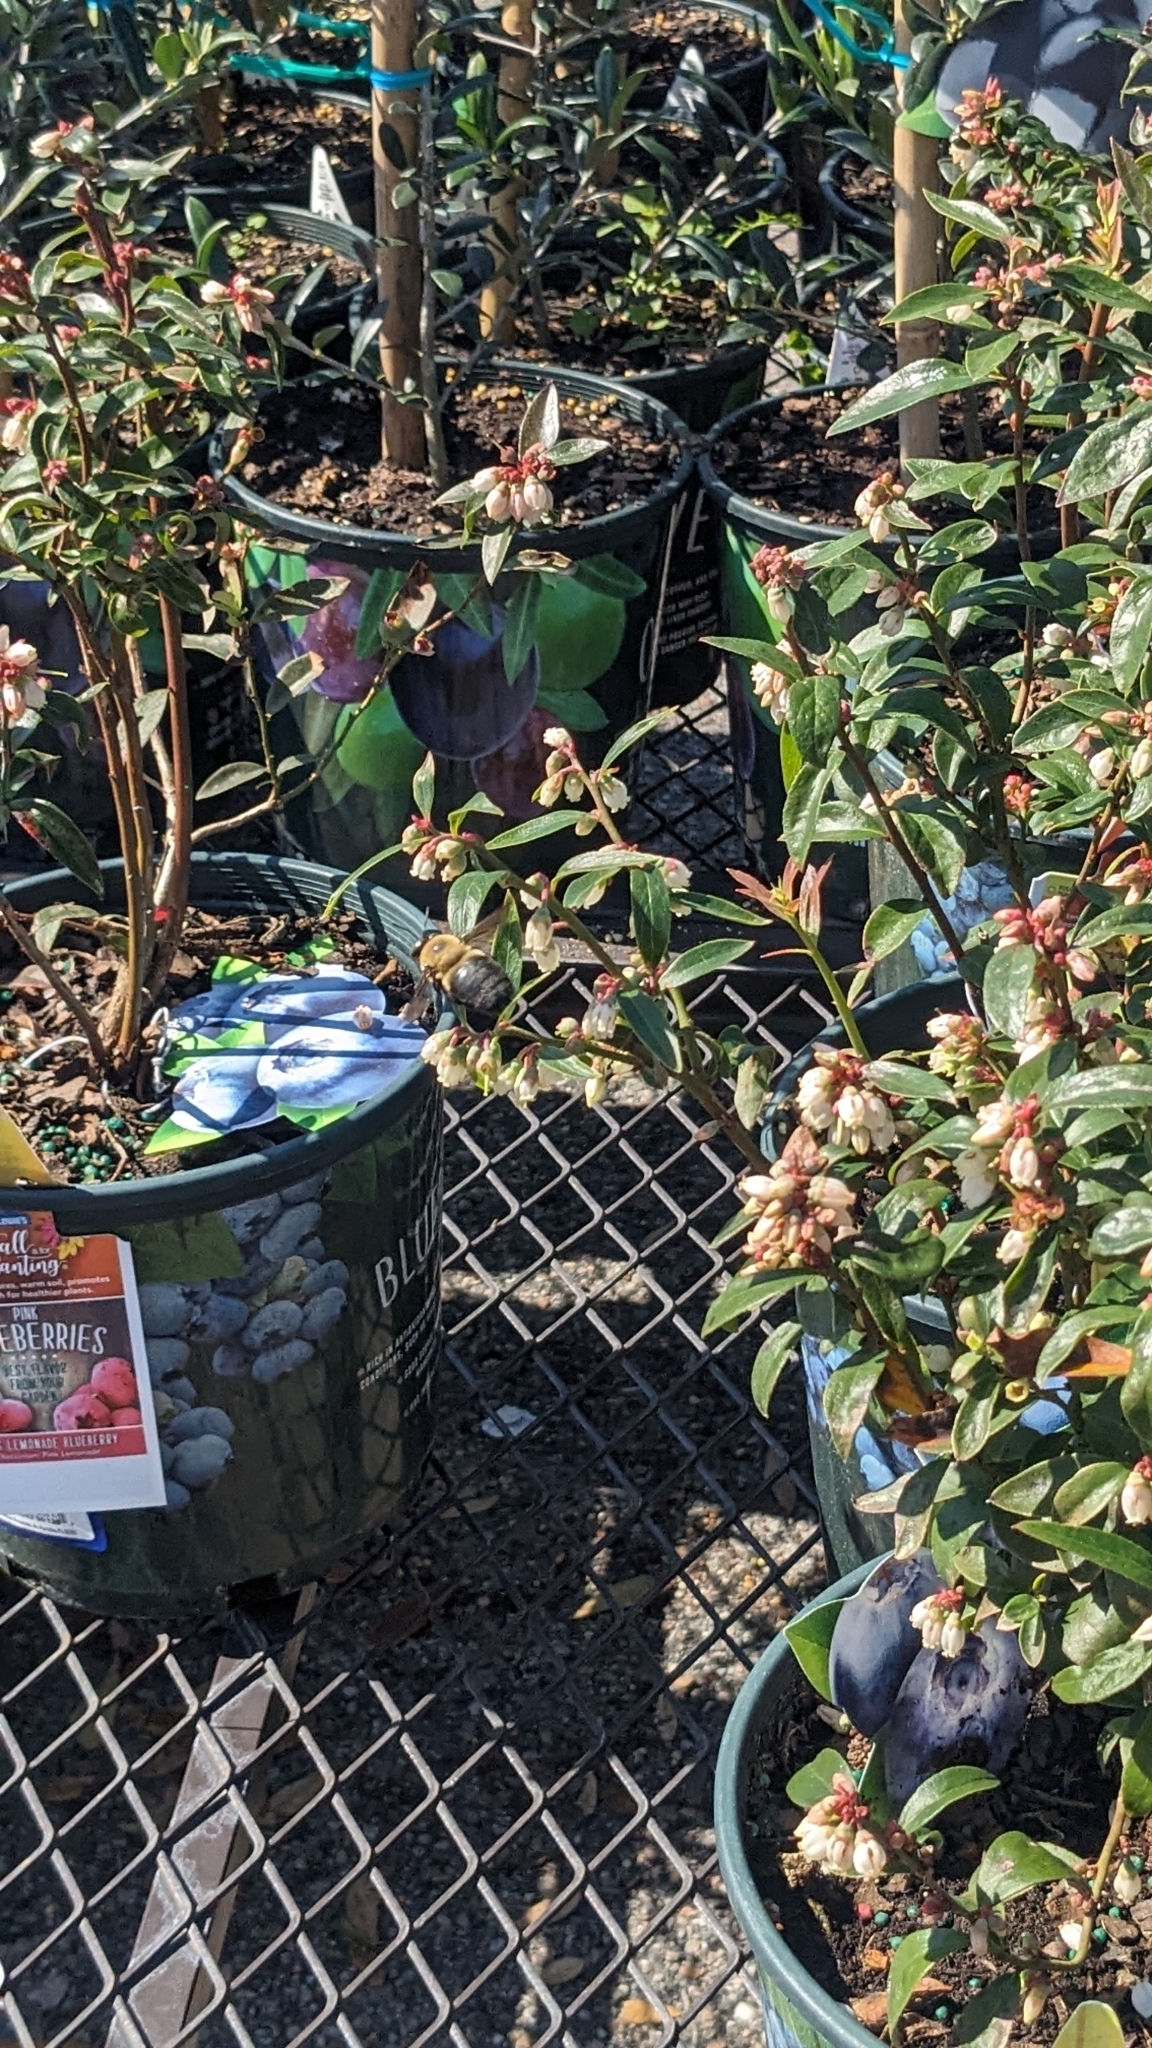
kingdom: Animalia
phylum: Arthropoda
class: Insecta
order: Hymenoptera
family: Apidae
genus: Xylocopa
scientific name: Xylocopa virginica
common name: Carpenter bee
